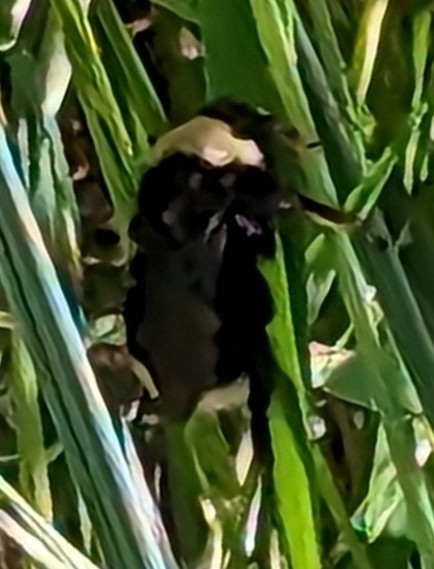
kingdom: Animalia
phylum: Arthropoda
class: Insecta
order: Hymenoptera
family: Apidae
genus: Bombus
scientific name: Bombus californicus
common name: California bumble bee
